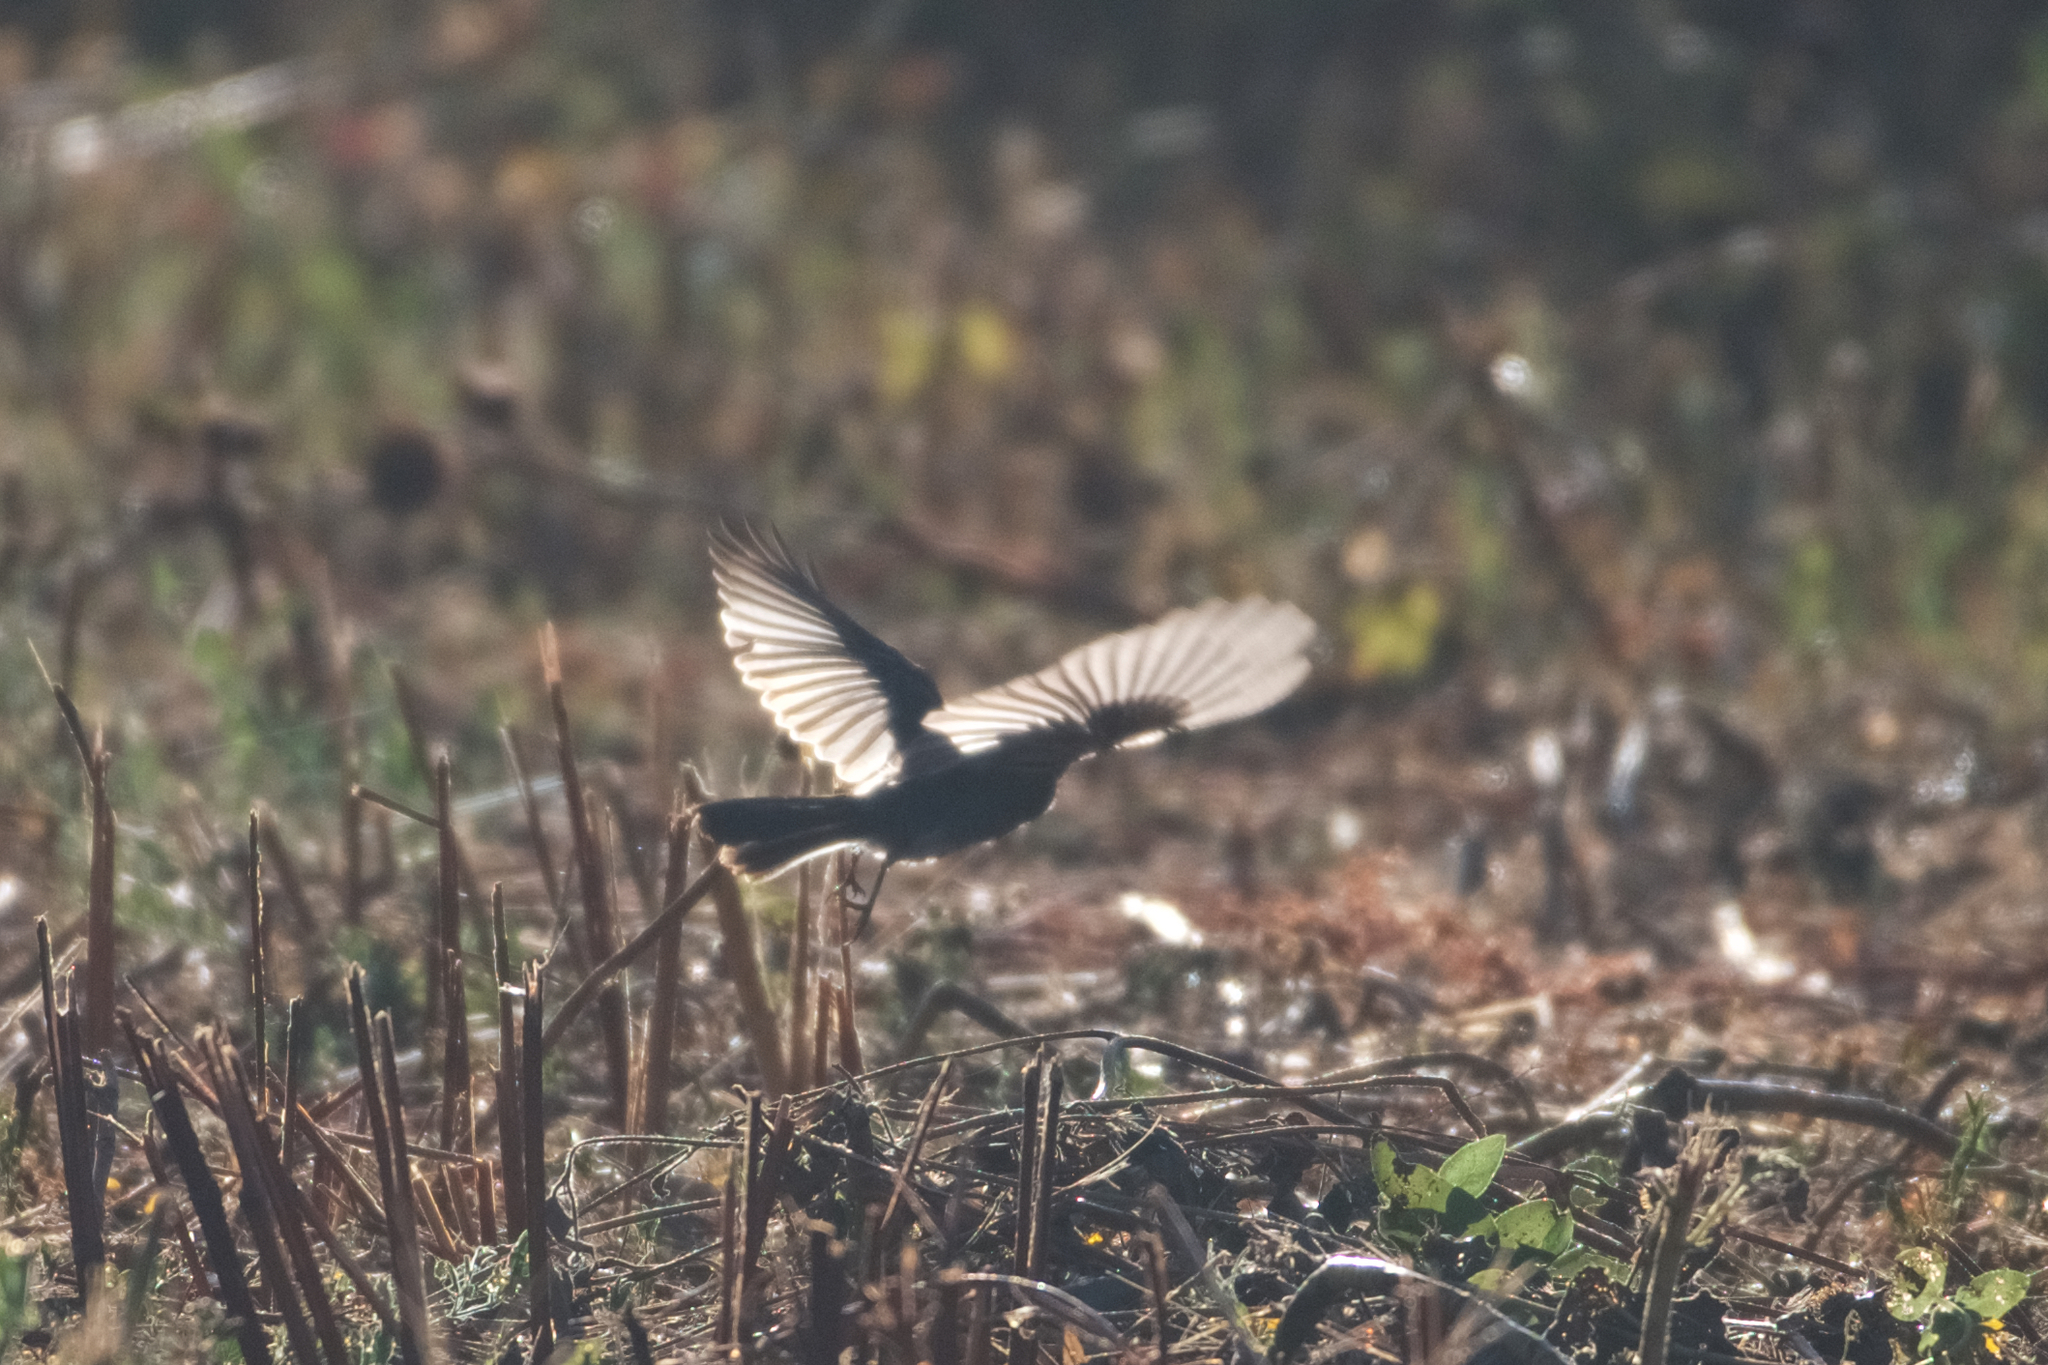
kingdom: Animalia
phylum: Chordata
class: Aves
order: Passeriformes
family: Tyrannidae
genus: Sayornis
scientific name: Sayornis nigricans
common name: Black phoebe
